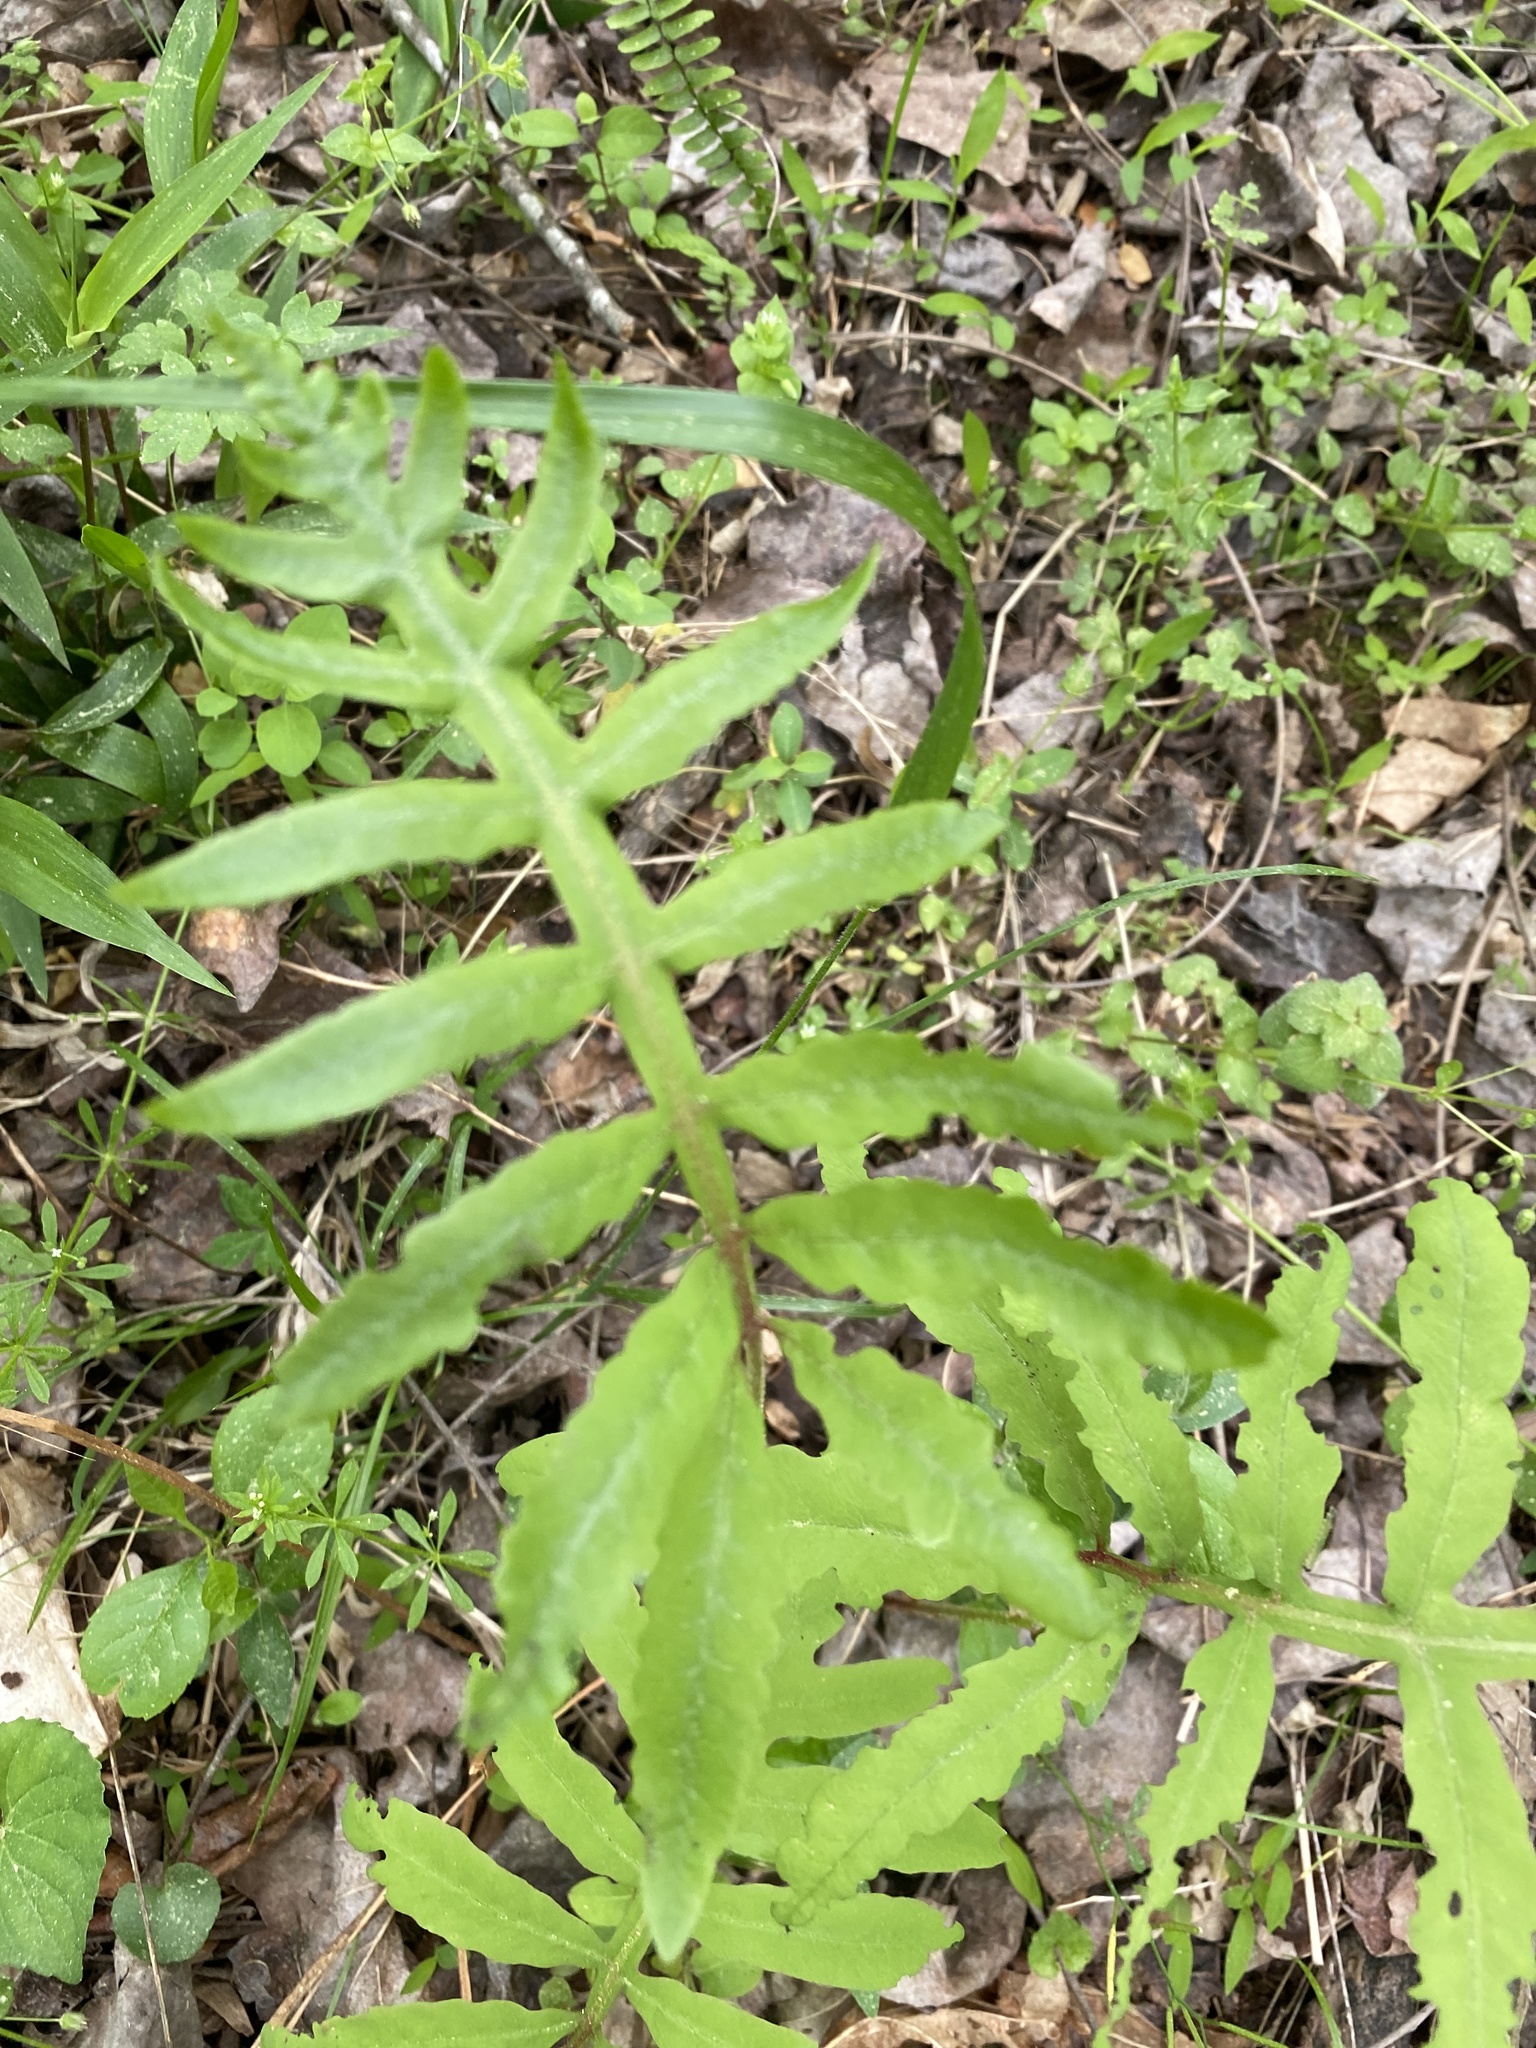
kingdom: Plantae
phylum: Tracheophyta
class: Polypodiopsida
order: Polypodiales
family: Onocleaceae
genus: Onoclea
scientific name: Onoclea sensibilis
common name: Sensitive fern
